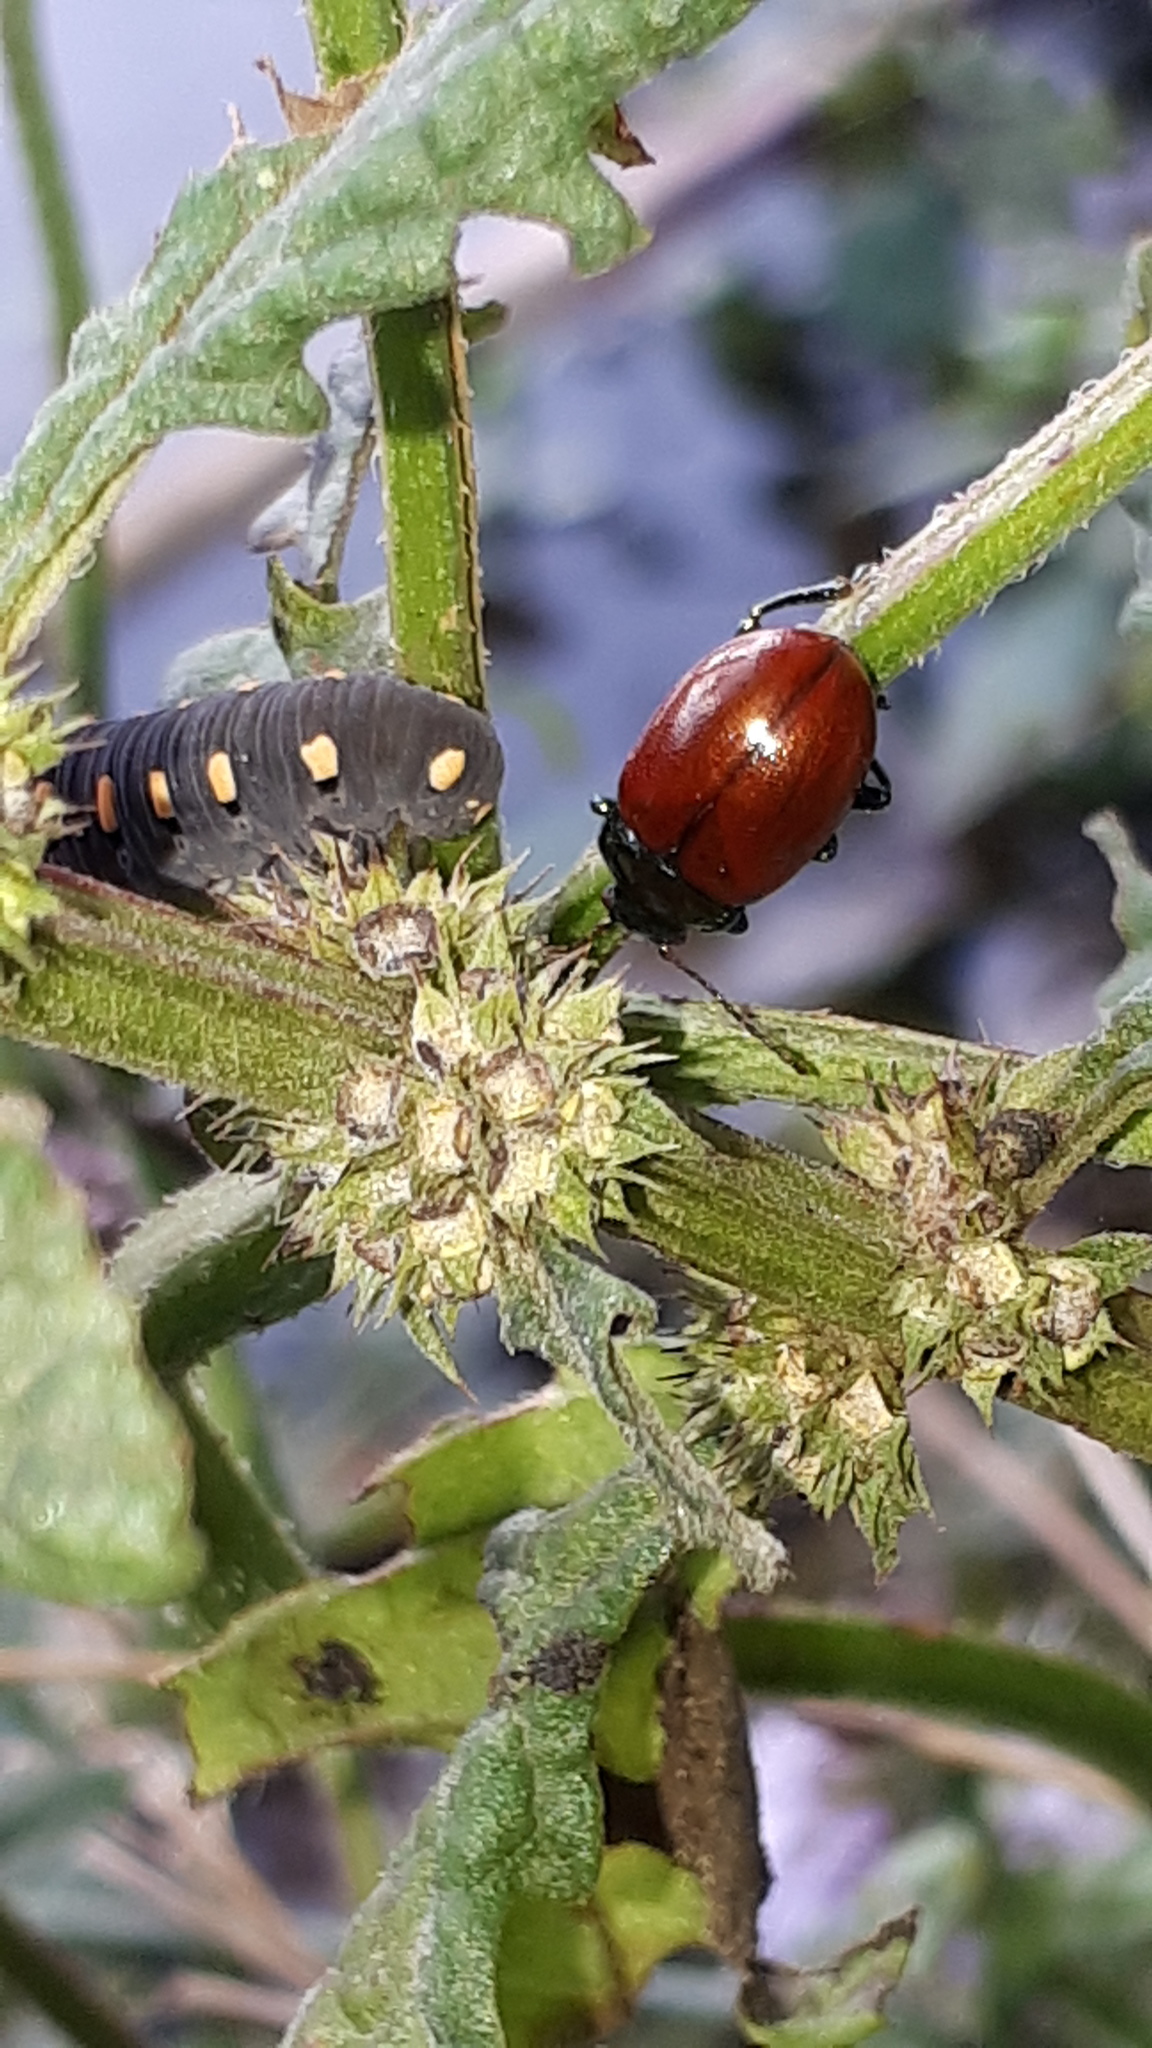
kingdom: Animalia
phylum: Arthropoda
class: Insecta
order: Coleoptera
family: Chrysomelidae
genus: Chrysomela
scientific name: Chrysomela polita
